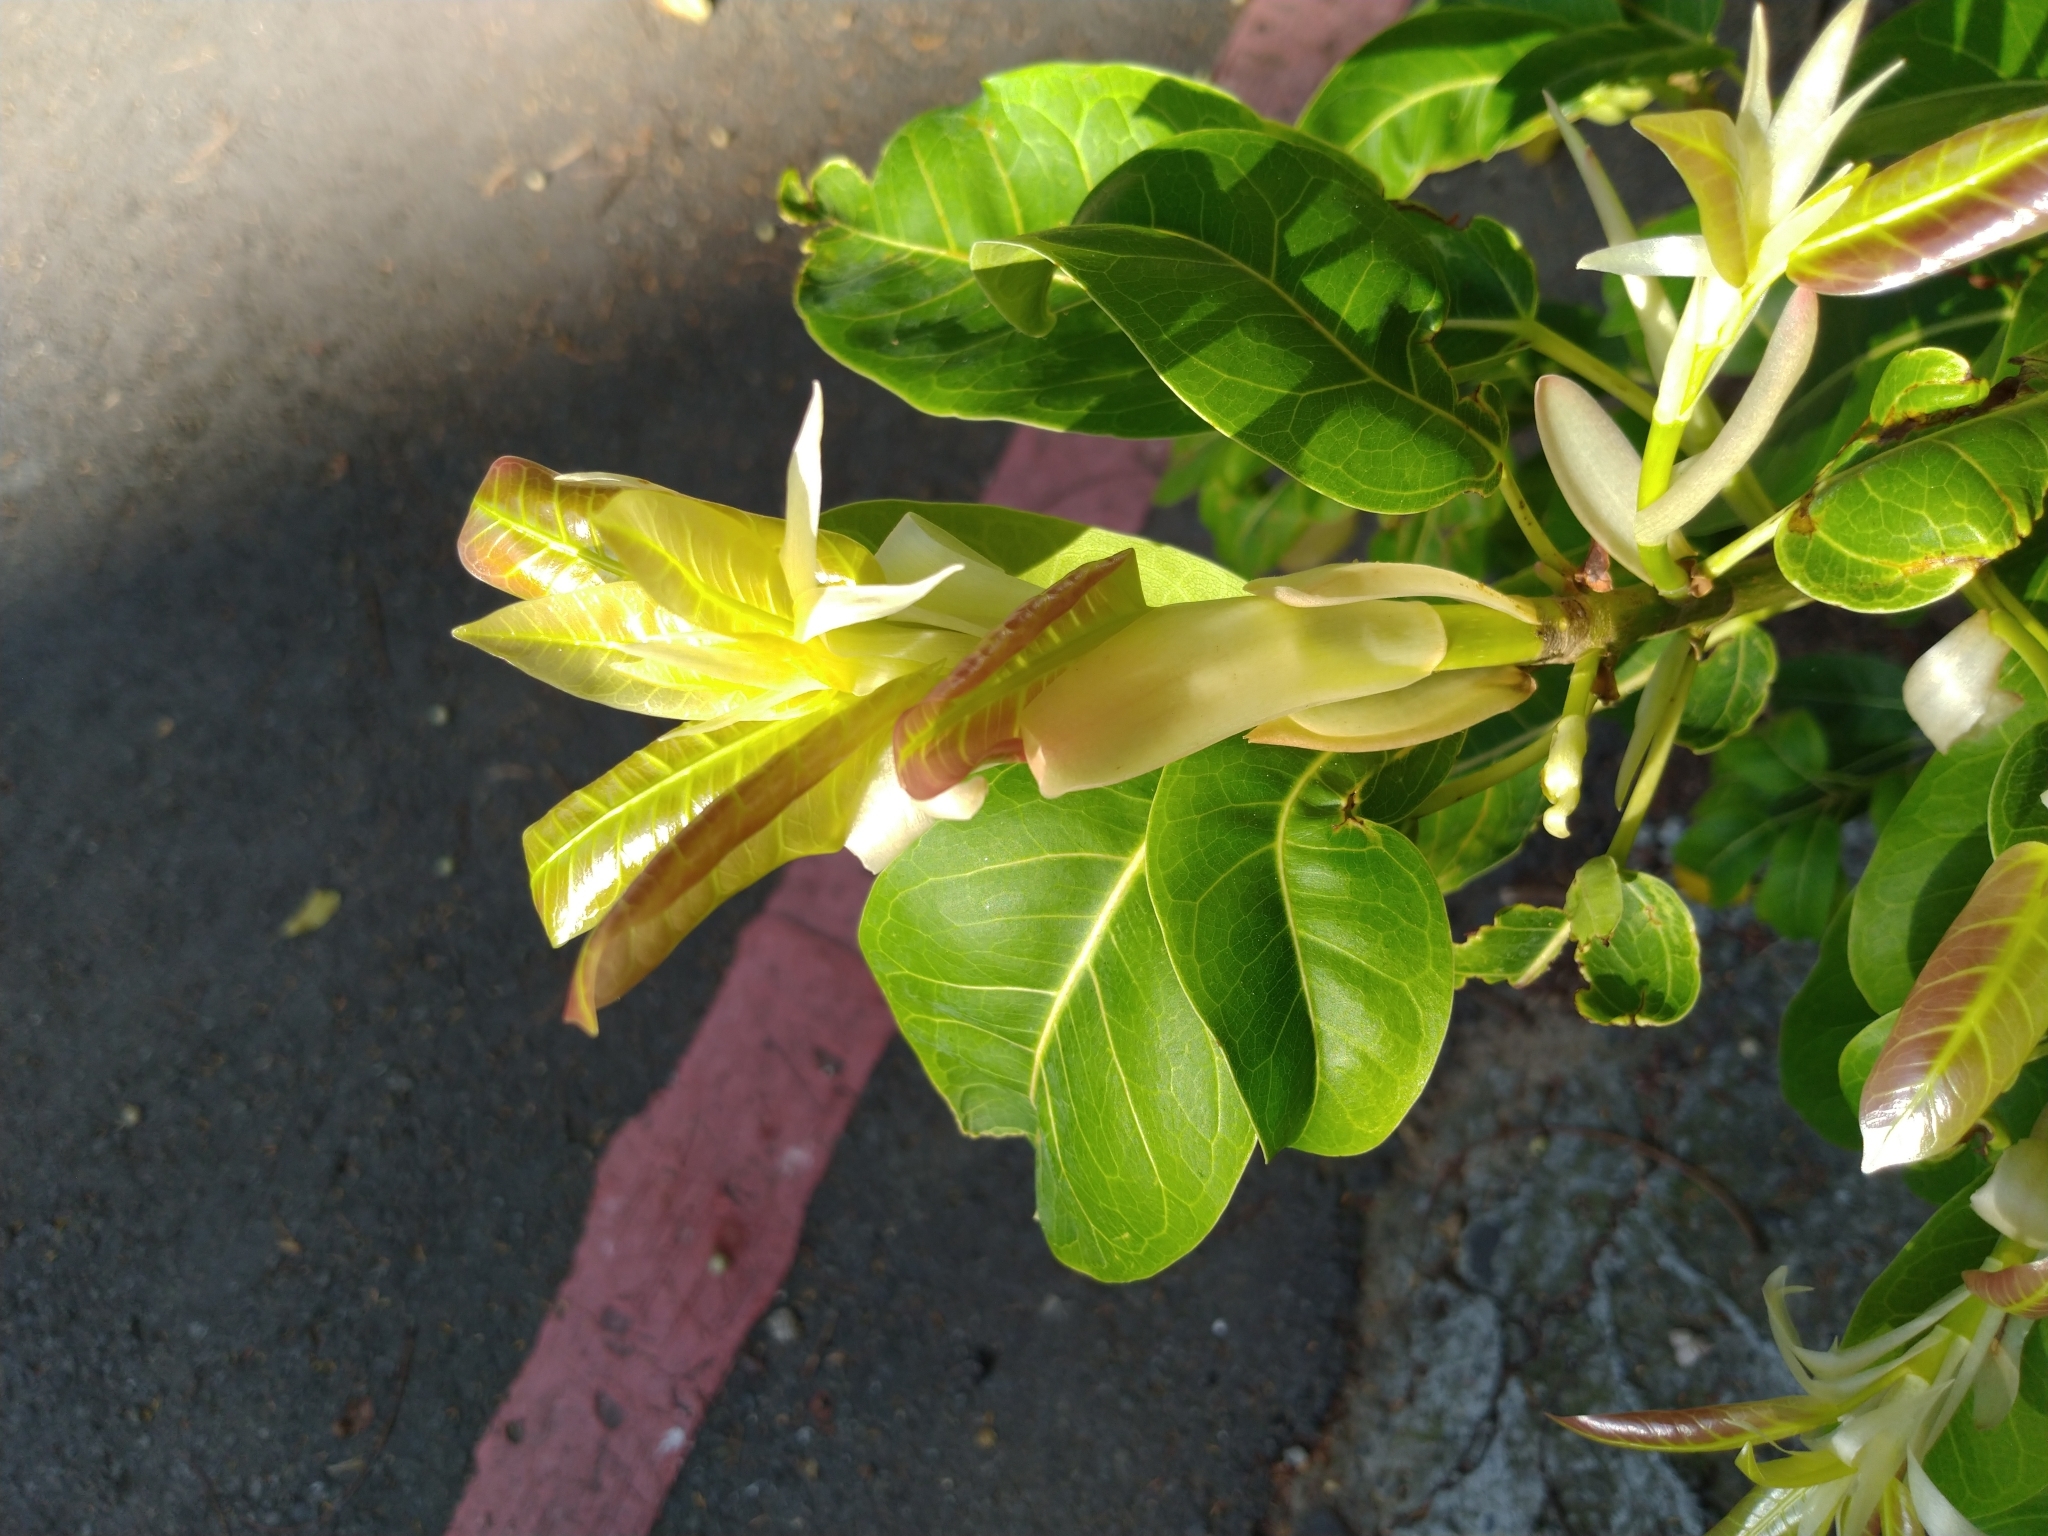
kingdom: Plantae
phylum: Tracheophyta
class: Magnoliopsida
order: Rosales
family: Moraceae
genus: Ficus
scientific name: Ficus caulocarpa
